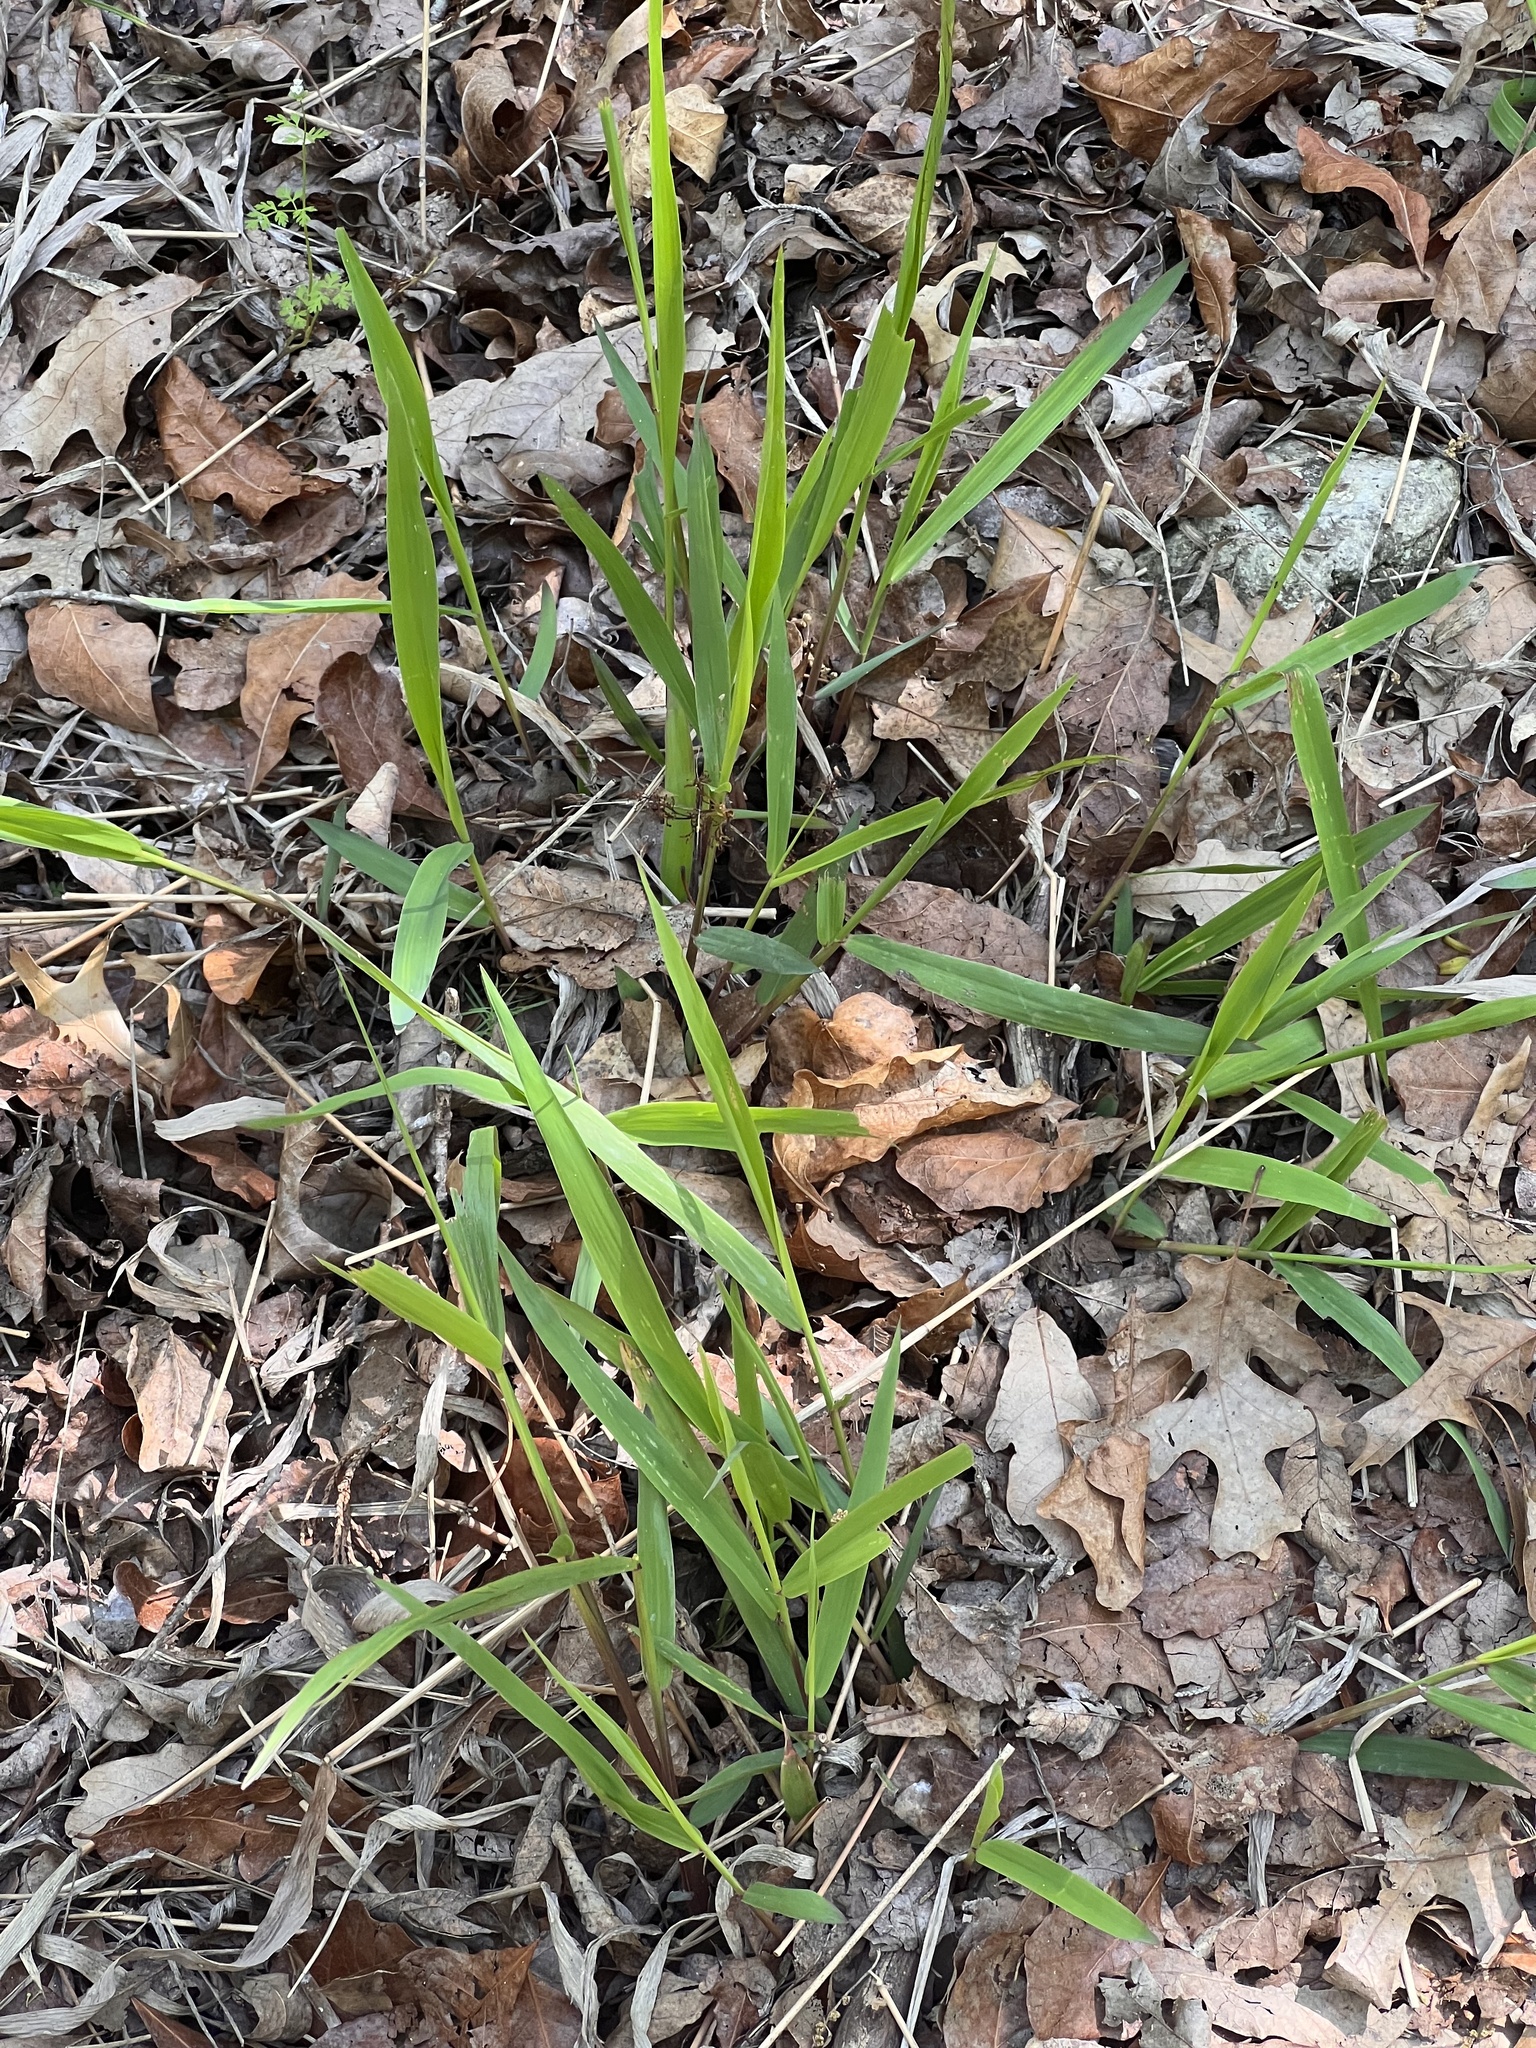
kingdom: Plantae
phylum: Tracheophyta
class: Liliopsida
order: Poales
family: Poaceae
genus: Chasmanthium
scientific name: Chasmanthium latifolium
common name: Broad-leaved chasmanthium
